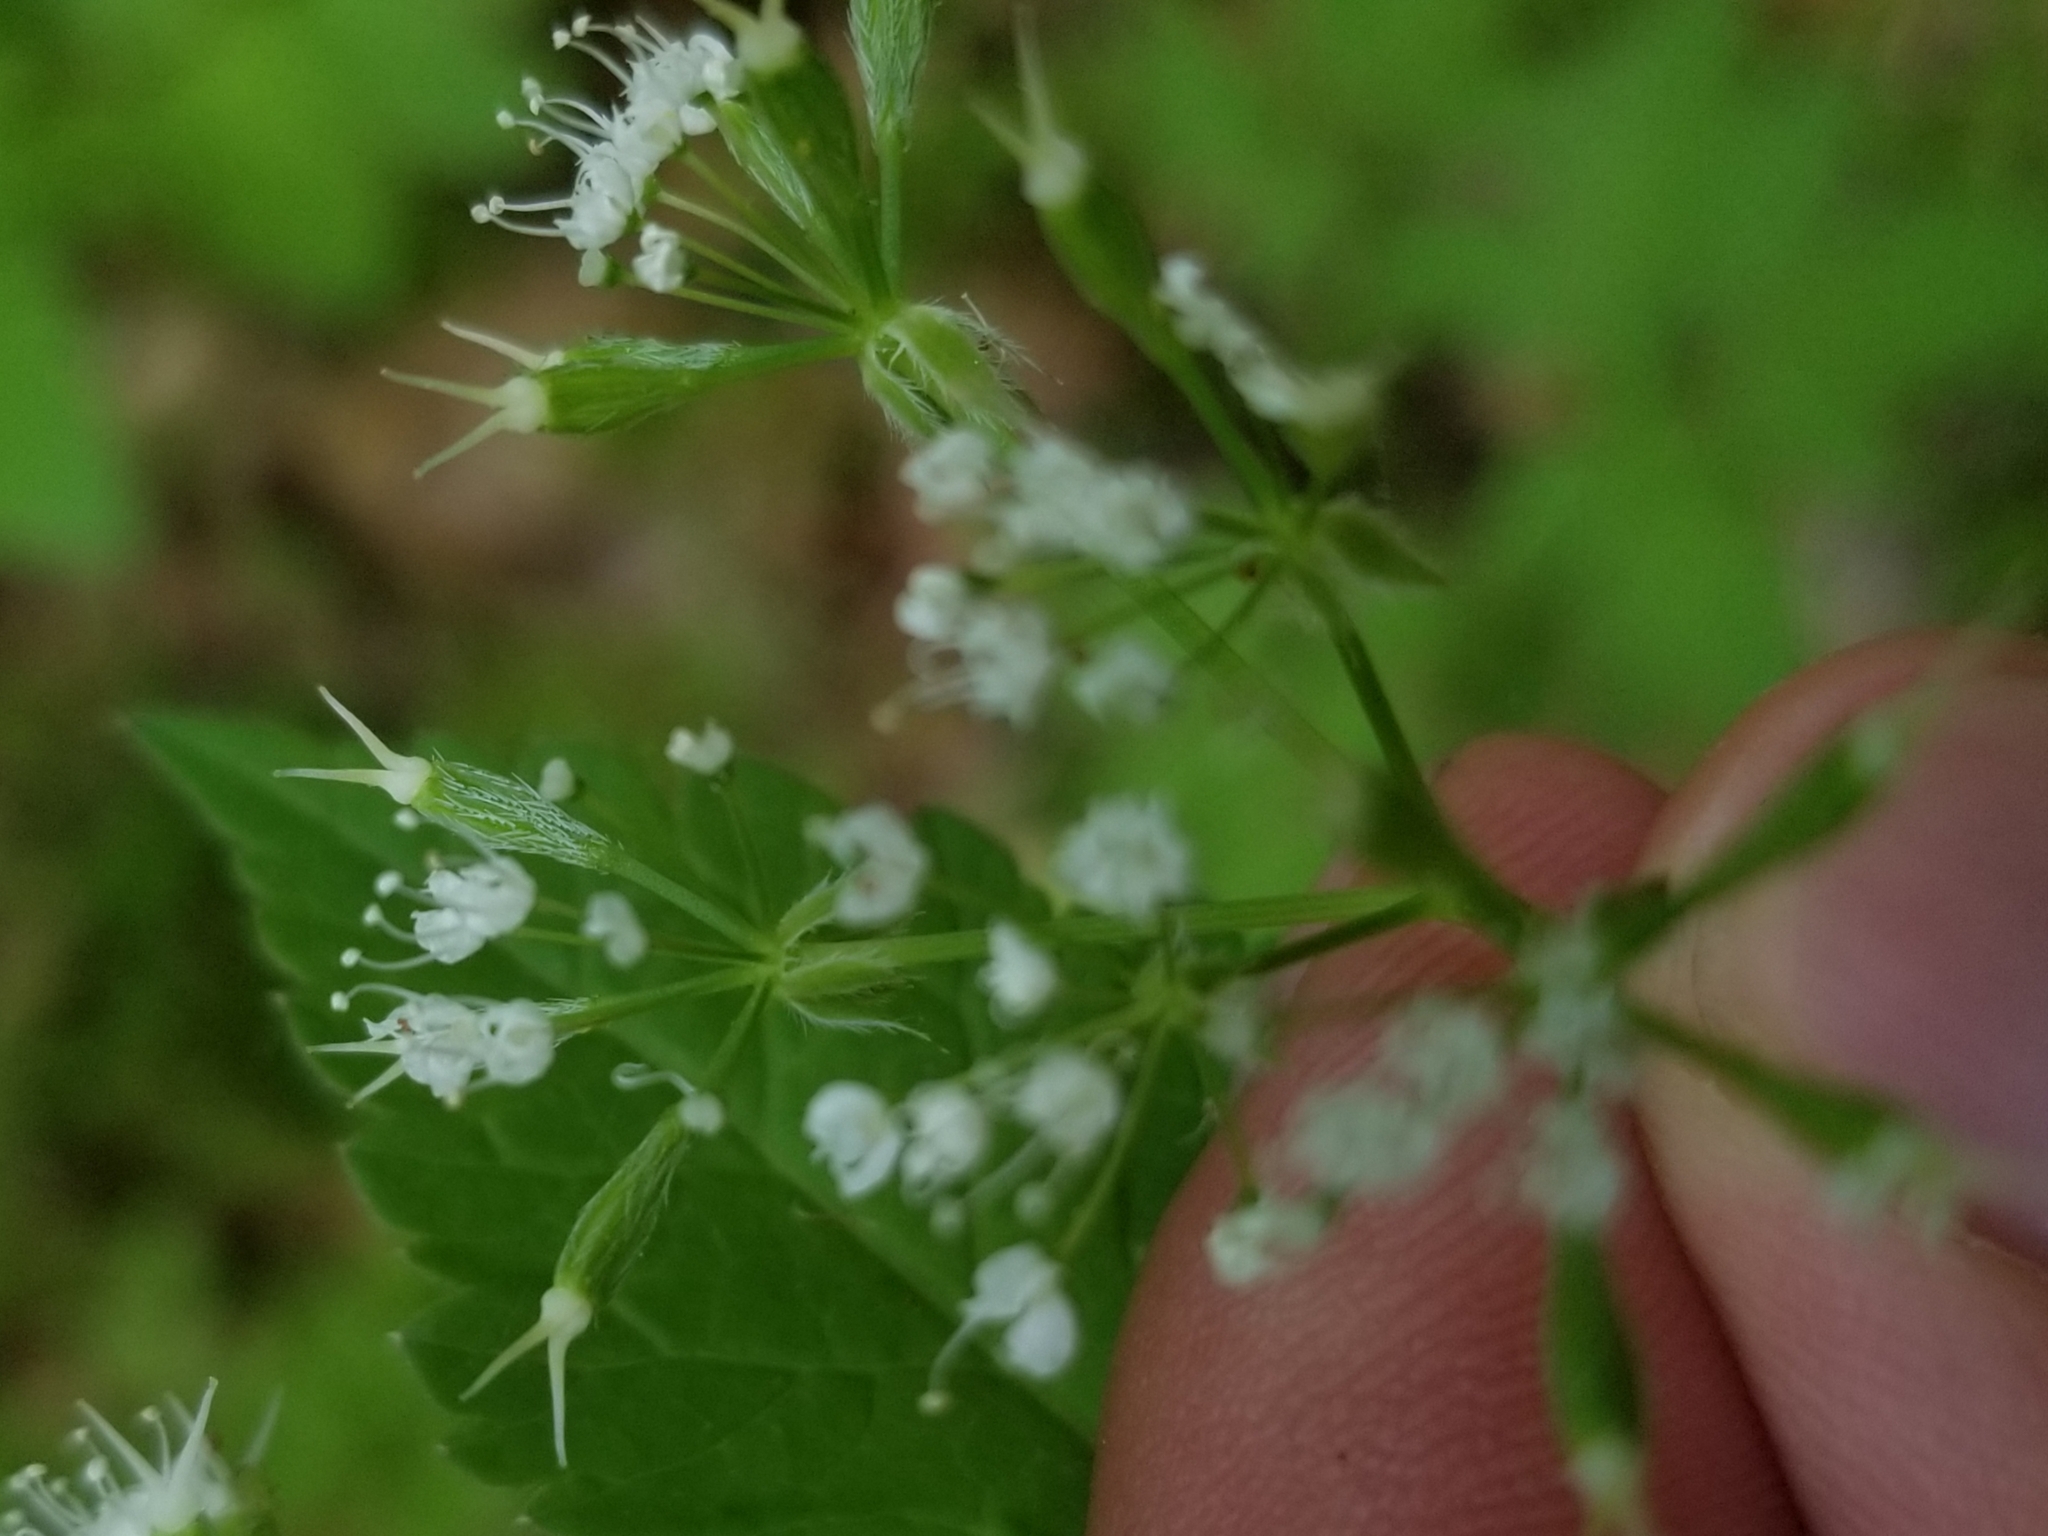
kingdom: Plantae
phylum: Tracheophyta
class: Magnoliopsida
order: Apiales
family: Apiaceae
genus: Osmorhiza
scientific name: Osmorhiza longistylis
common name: Smooth sweet cicely
